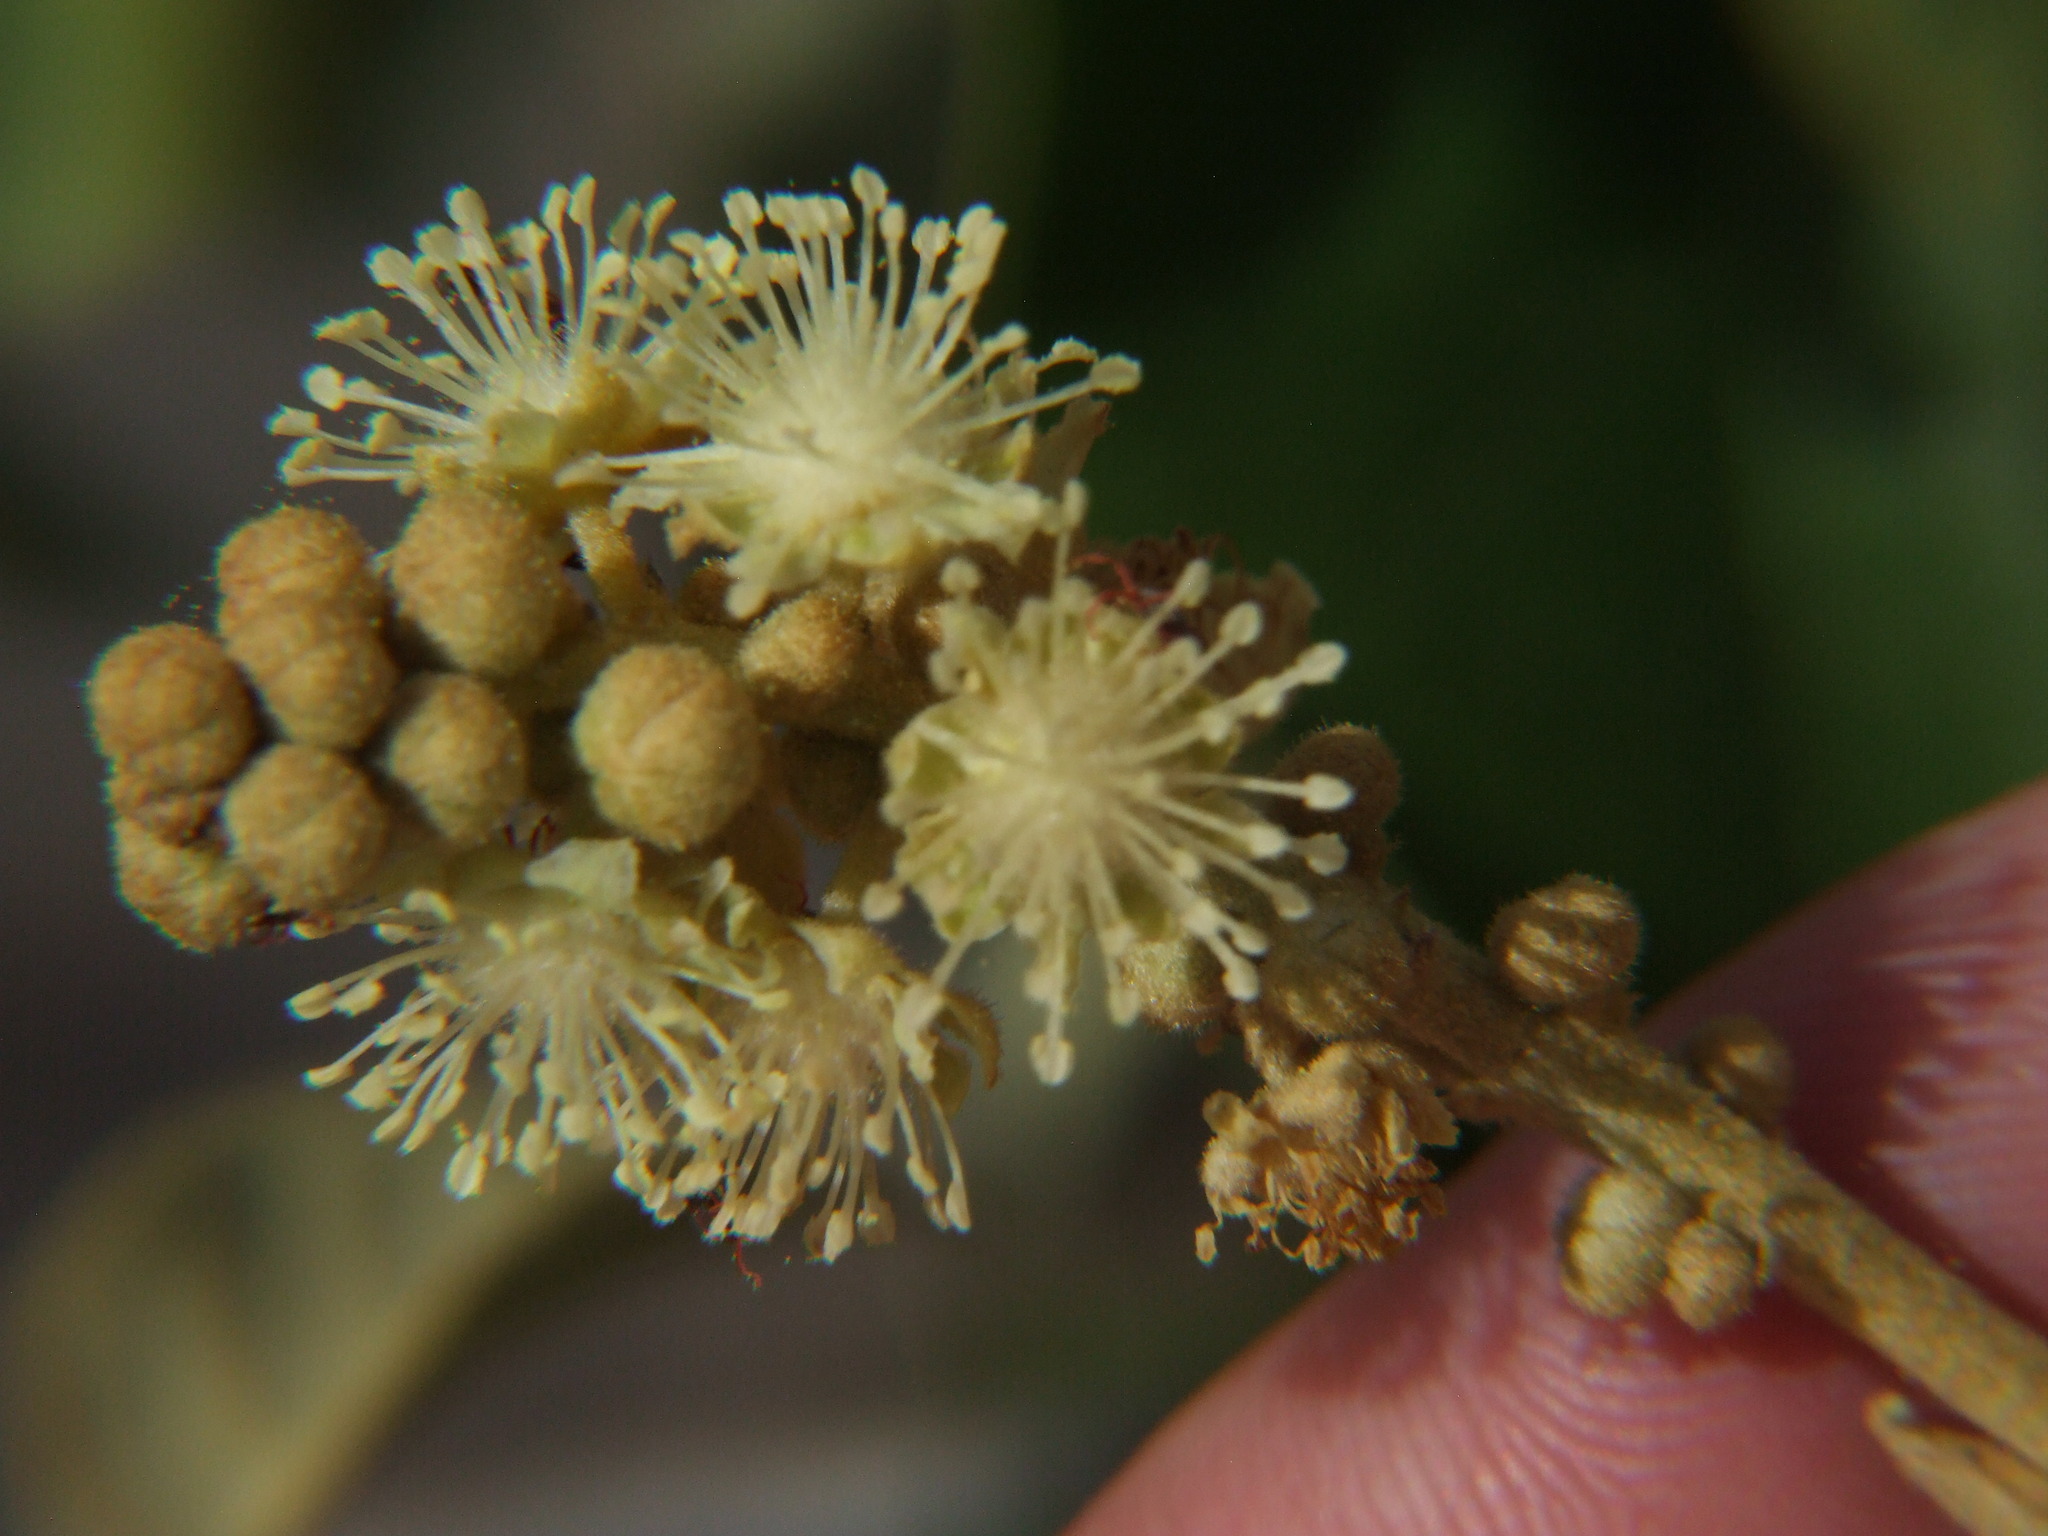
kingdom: Plantae
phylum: Tracheophyta
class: Magnoliopsida
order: Malpighiales
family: Euphorbiaceae
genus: Croton
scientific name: Croton ruizianus
